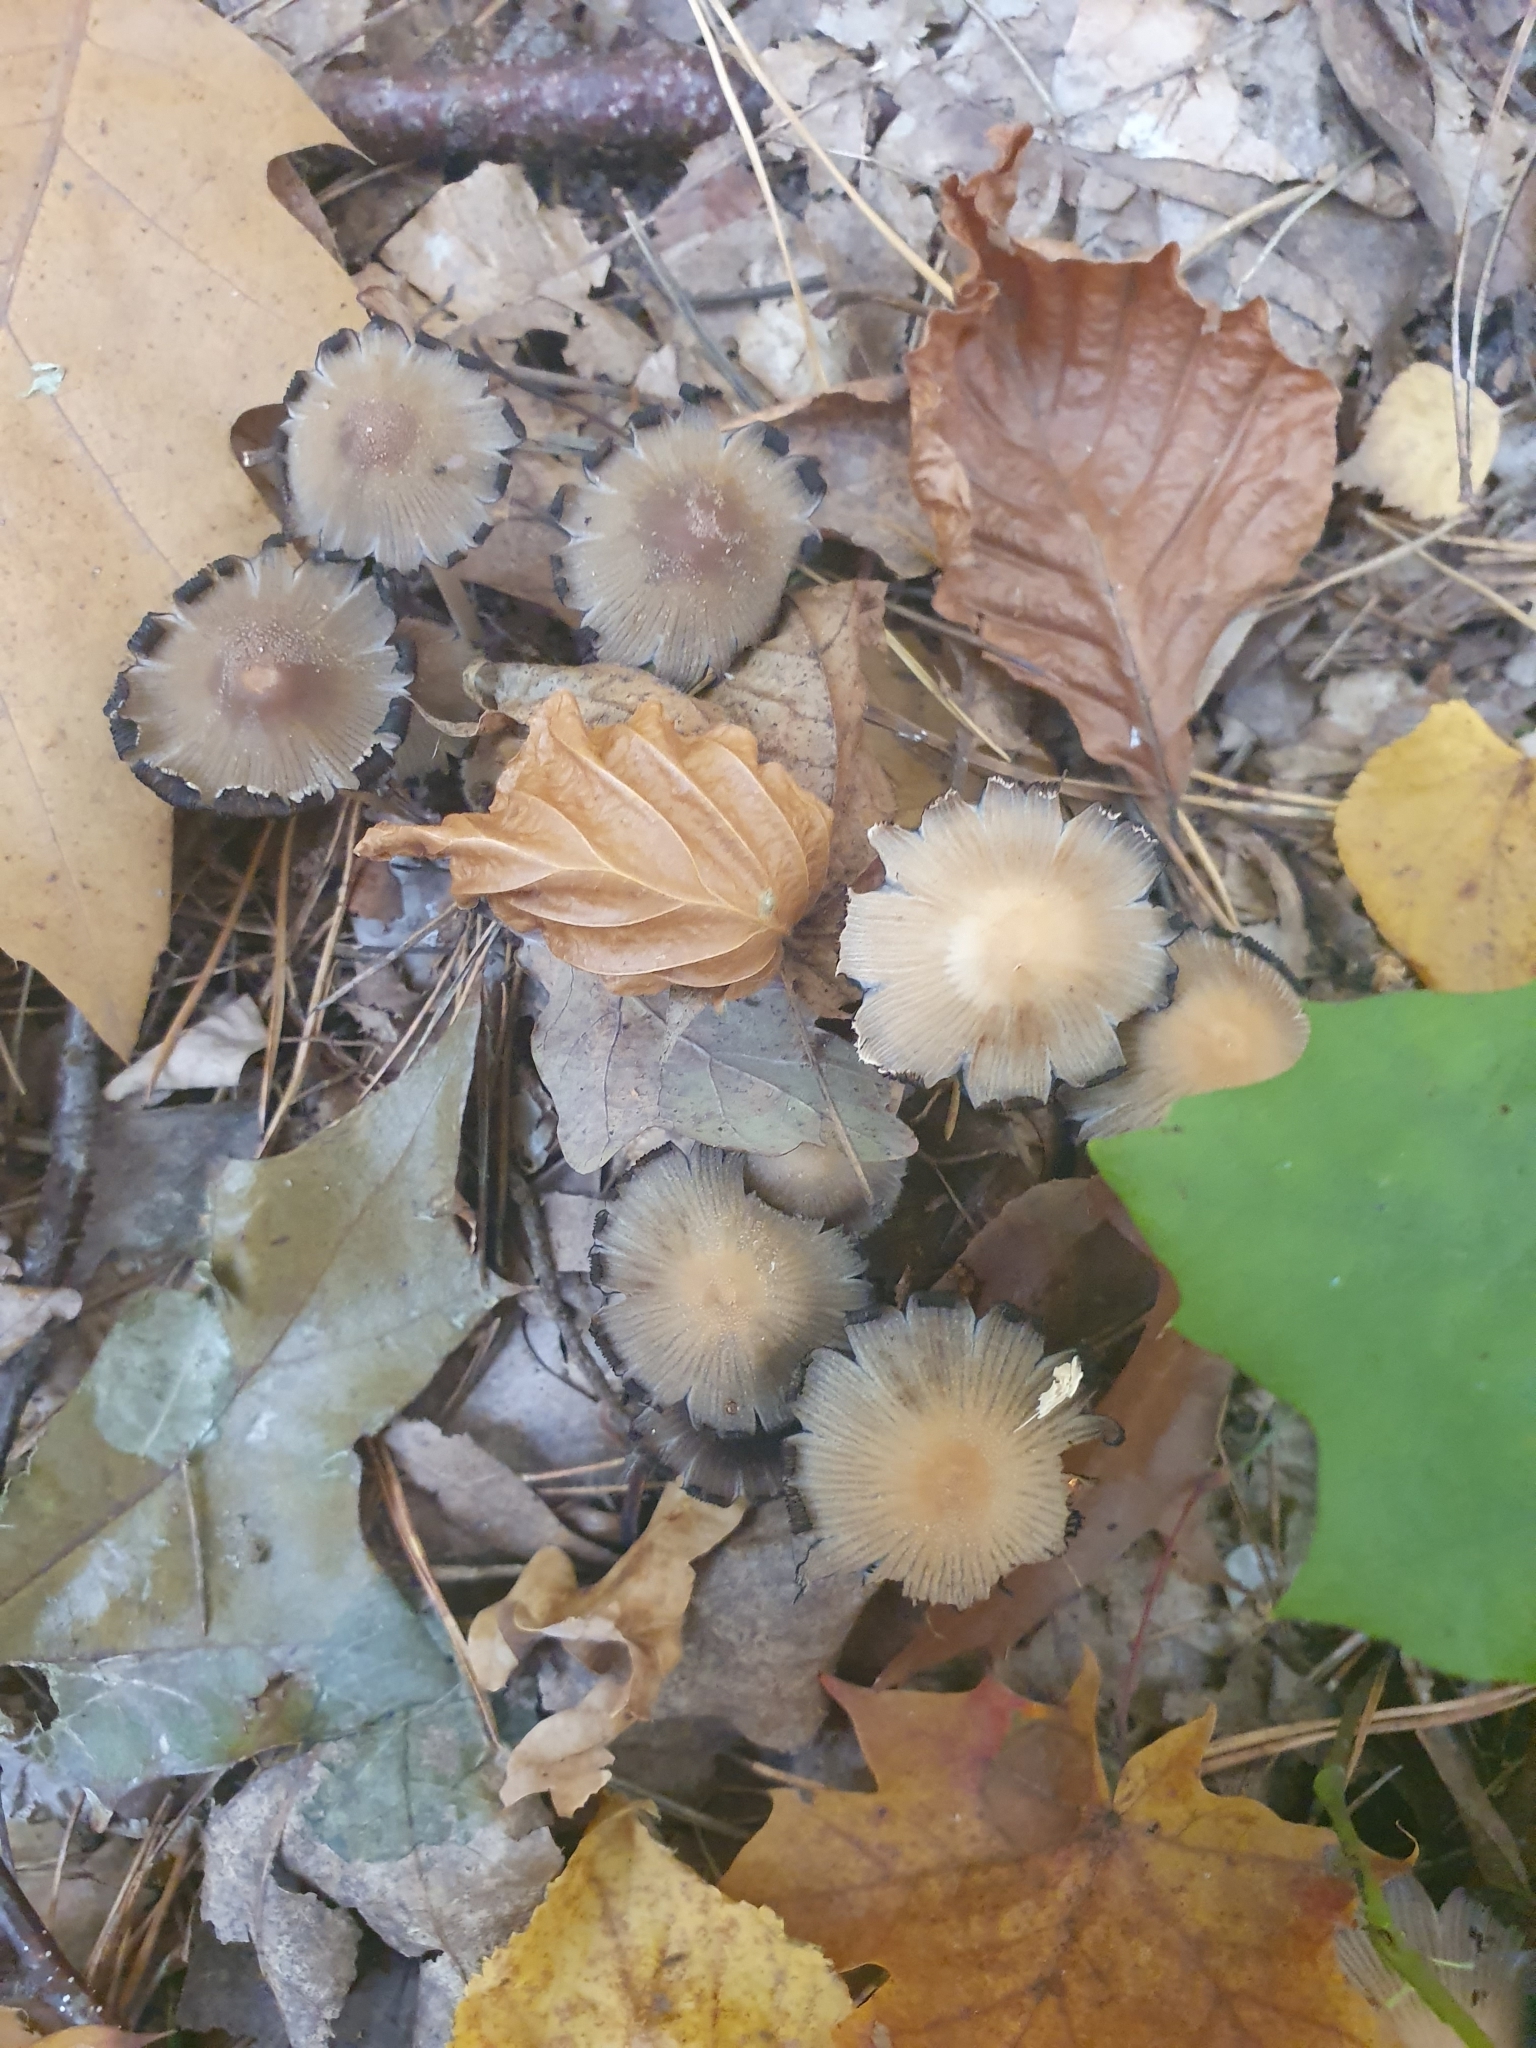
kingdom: Fungi
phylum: Basidiomycota
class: Agaricomycetes
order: Agaricales
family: Psathyrellaceae
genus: Coprinellus
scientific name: Coprinellus micaceus
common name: Glistening ink-cap
